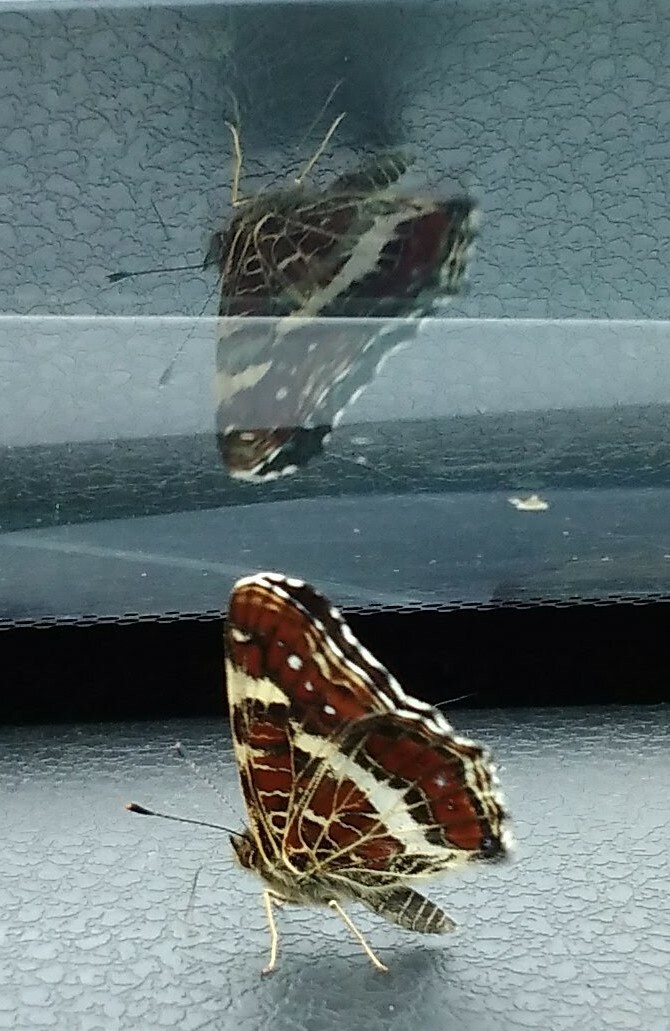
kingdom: Animalia
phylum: Arthropoda
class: Insecta
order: Lepidoptera
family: Nymphalidae
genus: Araschnia
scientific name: Araschnia levana
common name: Map butterfly
